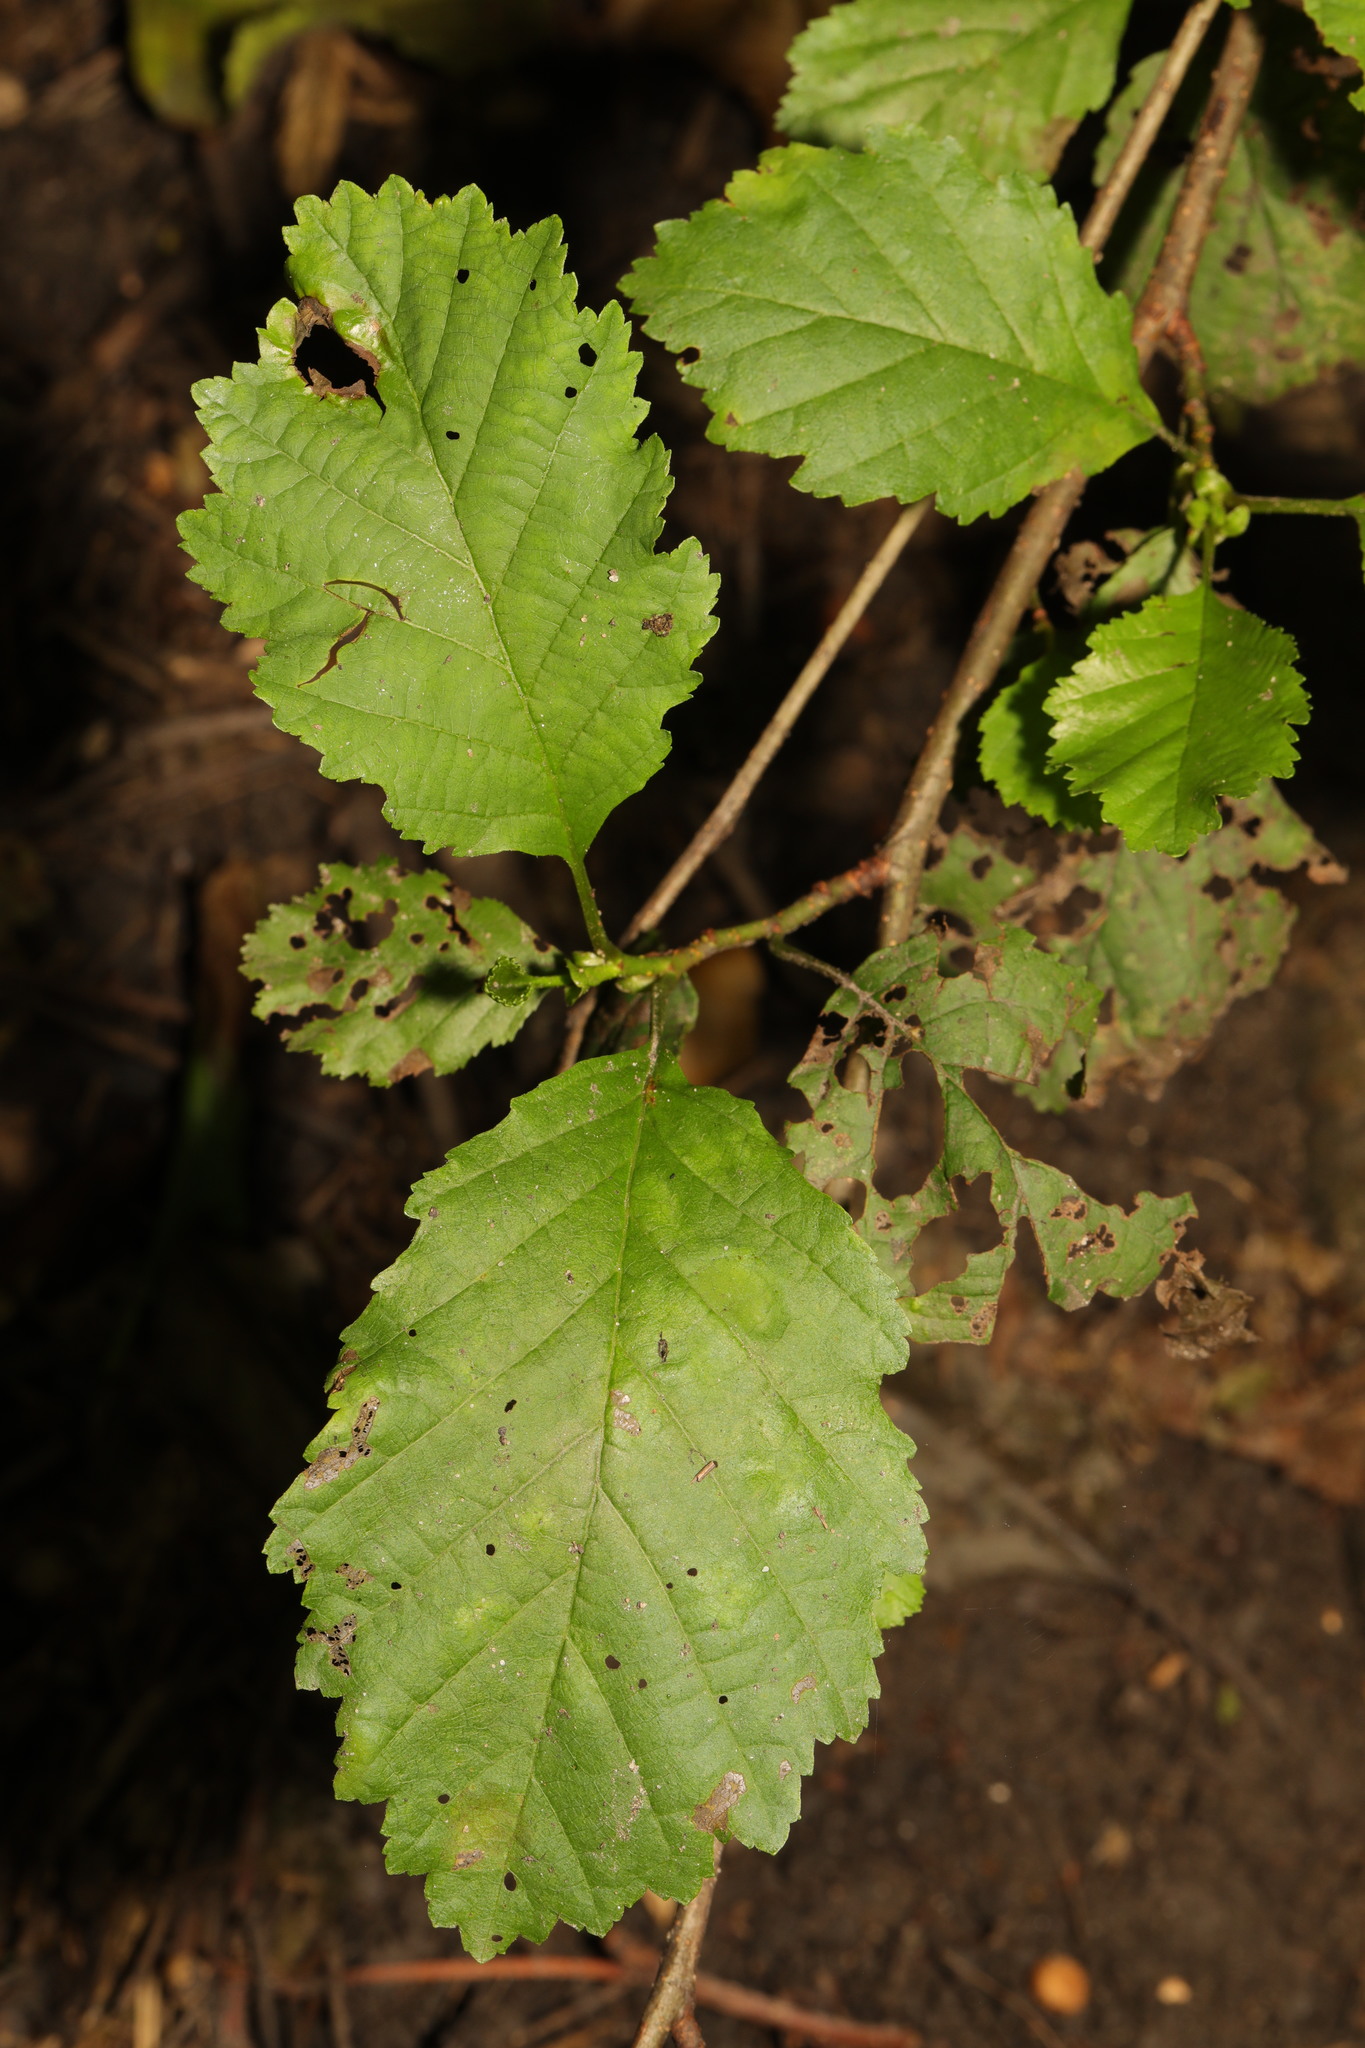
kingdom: Plantae
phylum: Tracheophyta
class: Magnoliopsida
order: Fagales
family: Betulaceae
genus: Alnus
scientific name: Alnus incana
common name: Grey alder
